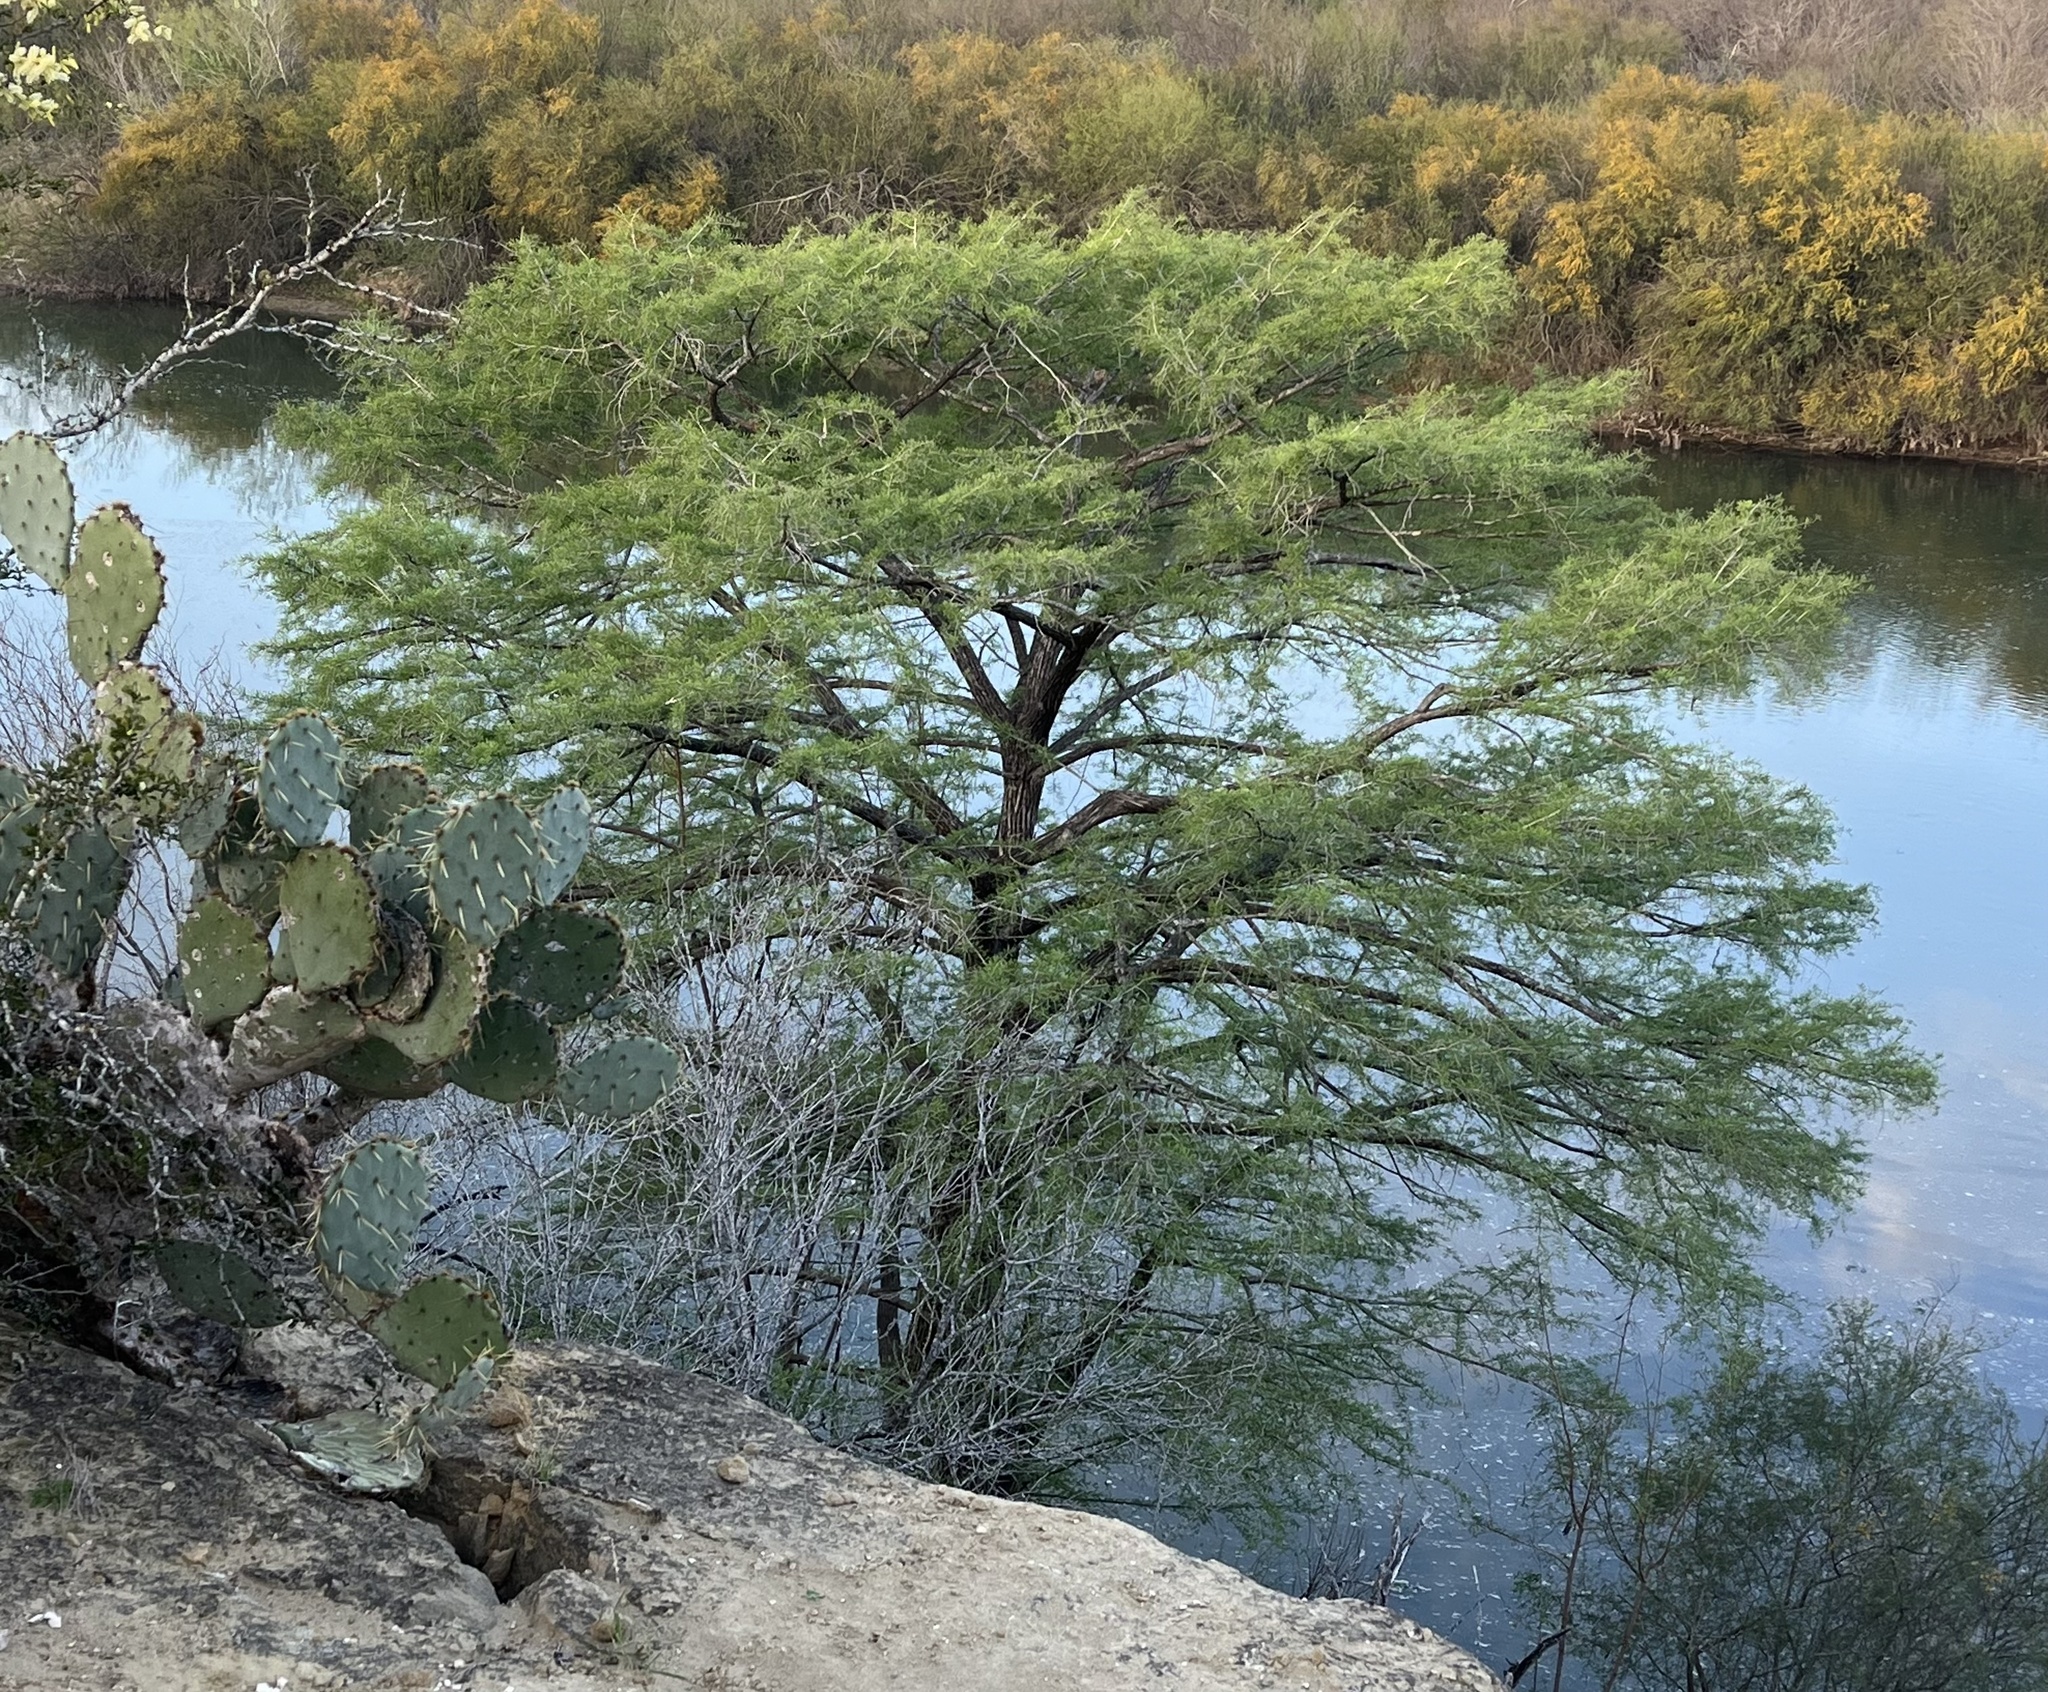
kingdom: Plantae
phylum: Tracheophyta
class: Pinopsida
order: Pinales
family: Cupressaceae
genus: Taxodium
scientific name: Taxodium mucronatum
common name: Montezume bald cypress
